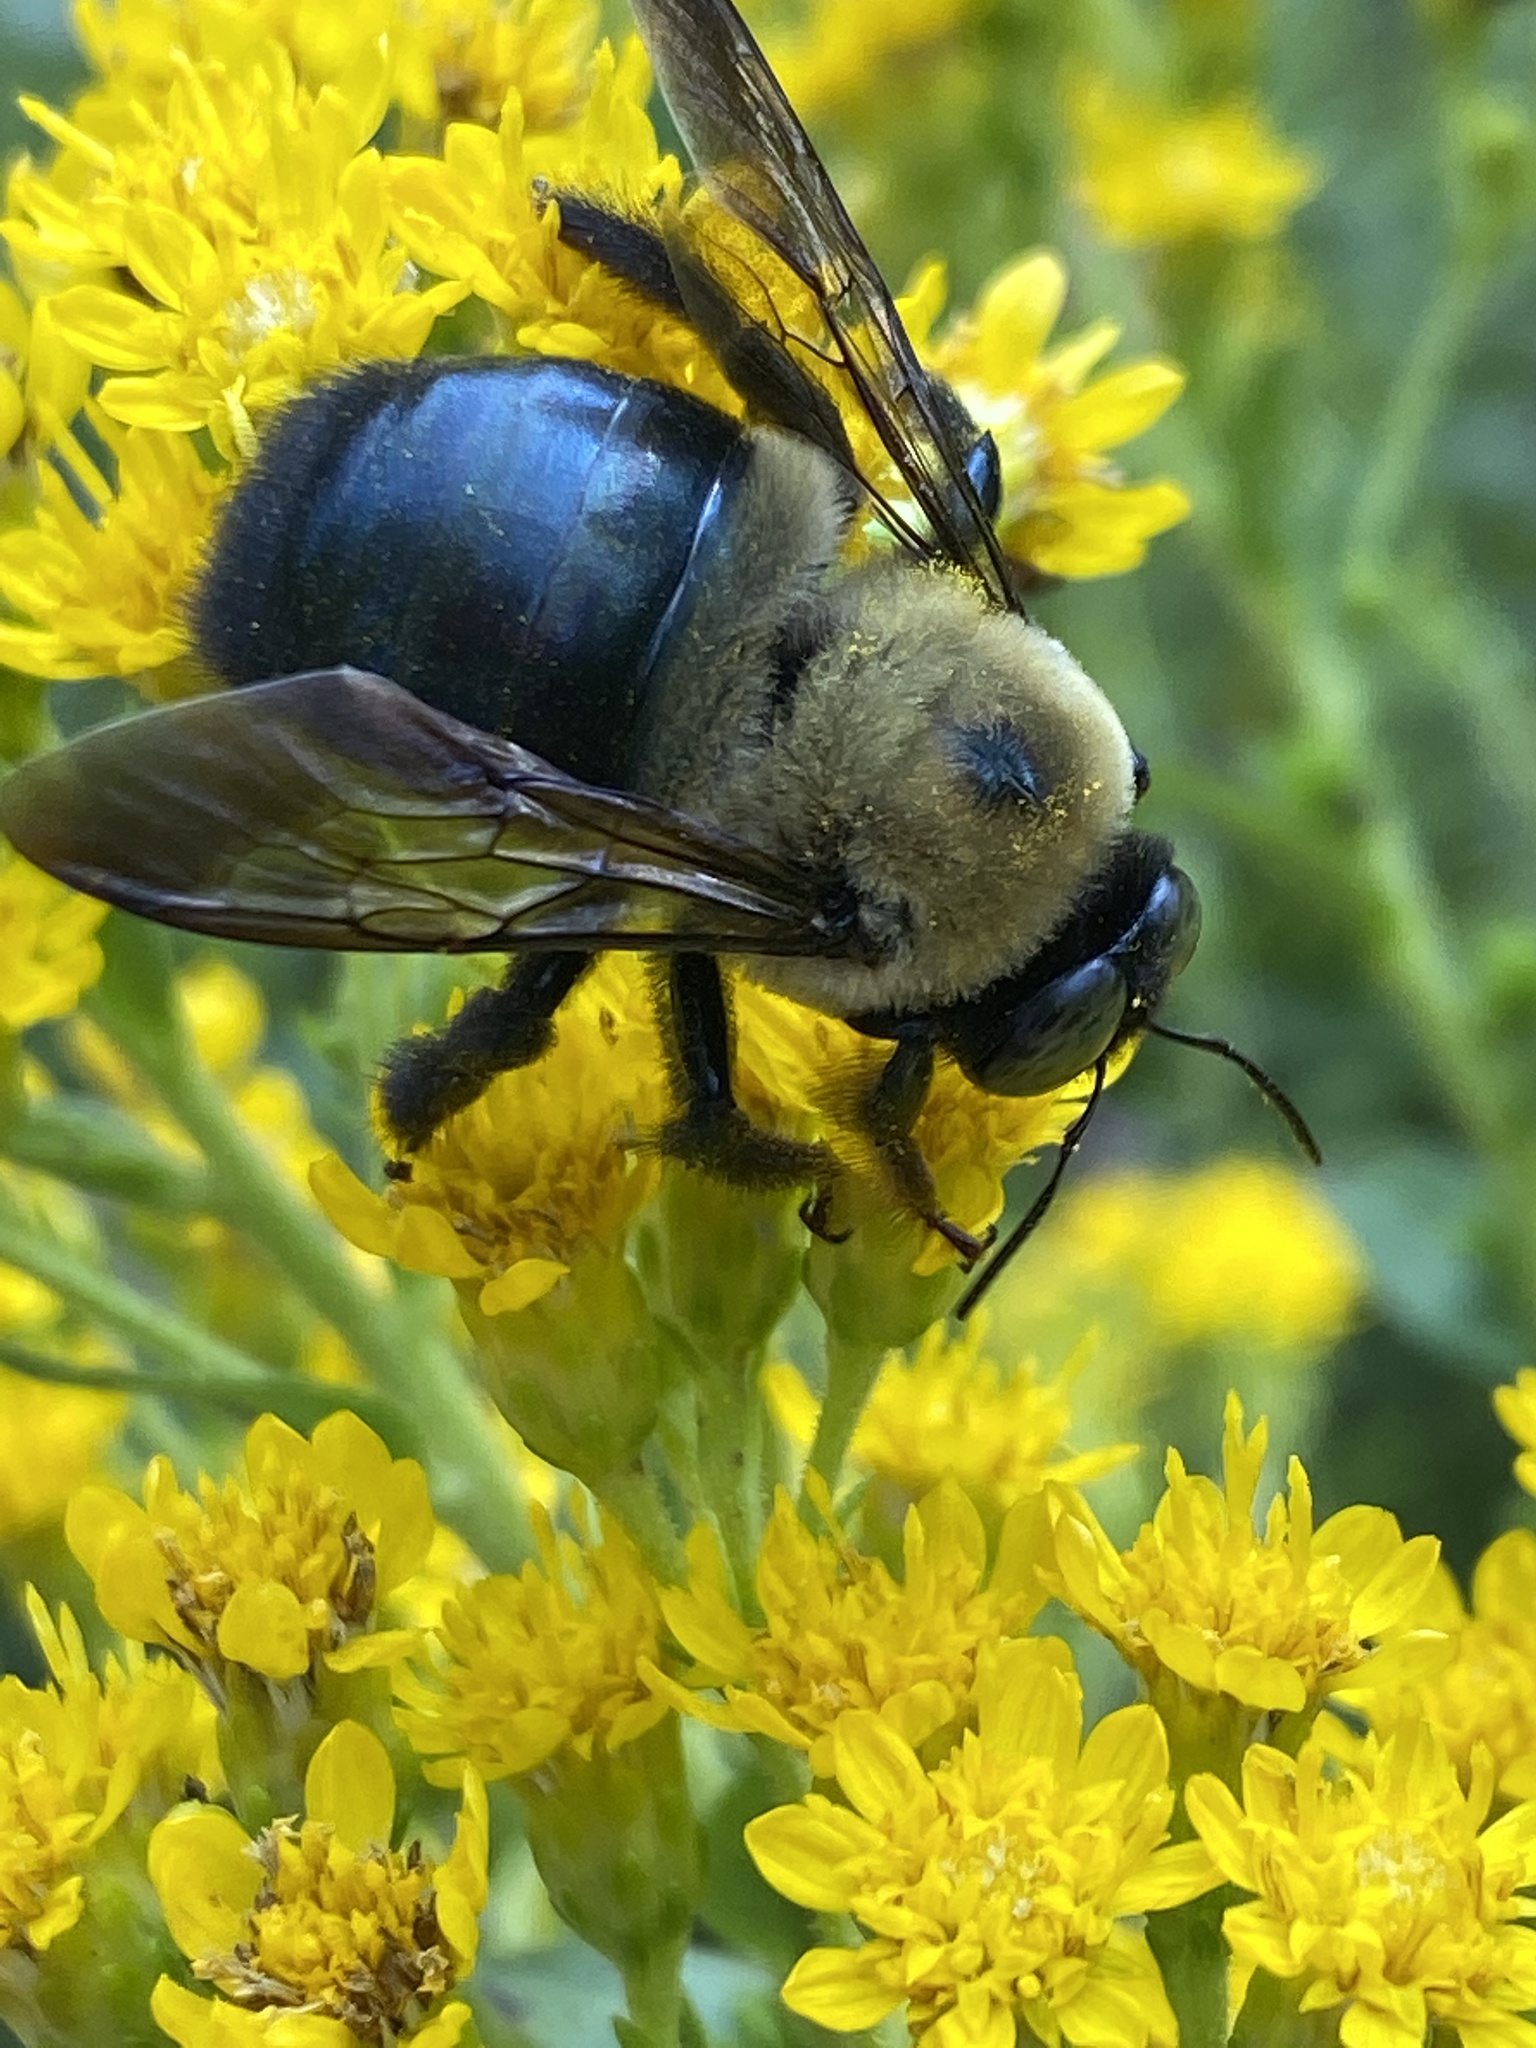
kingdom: Animalia
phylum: Arthropoda
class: Insecta
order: Hymenoptera
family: Apidae
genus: Xylocopa
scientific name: Xylocopa virginica
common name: Carpenter bee
